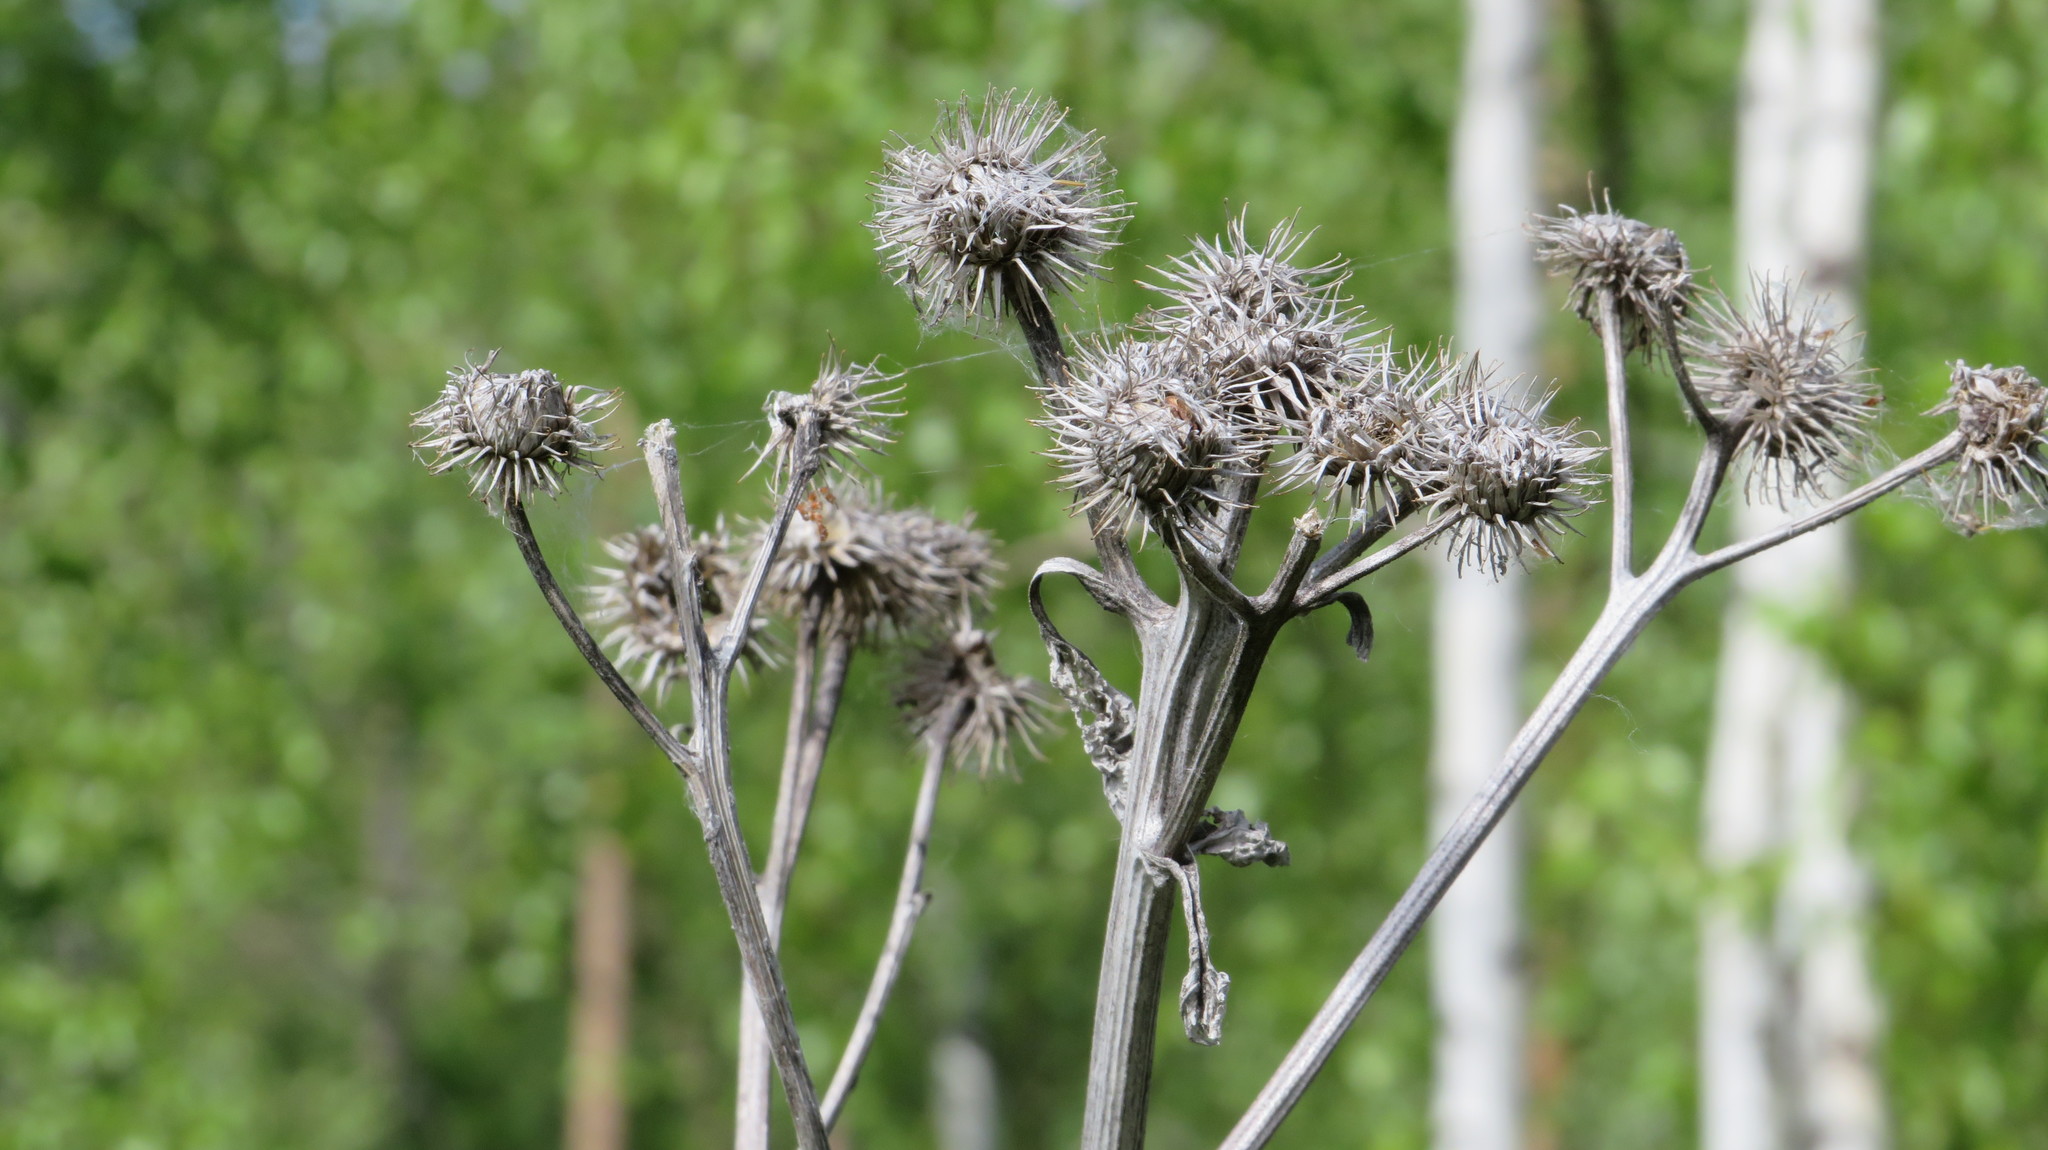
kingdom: Plantae
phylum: Tracheophyta
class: Magnoliopsida
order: Asterales
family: Asteraceae
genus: Arctium
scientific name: Arctium tomentosum
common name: Woolly burdock
